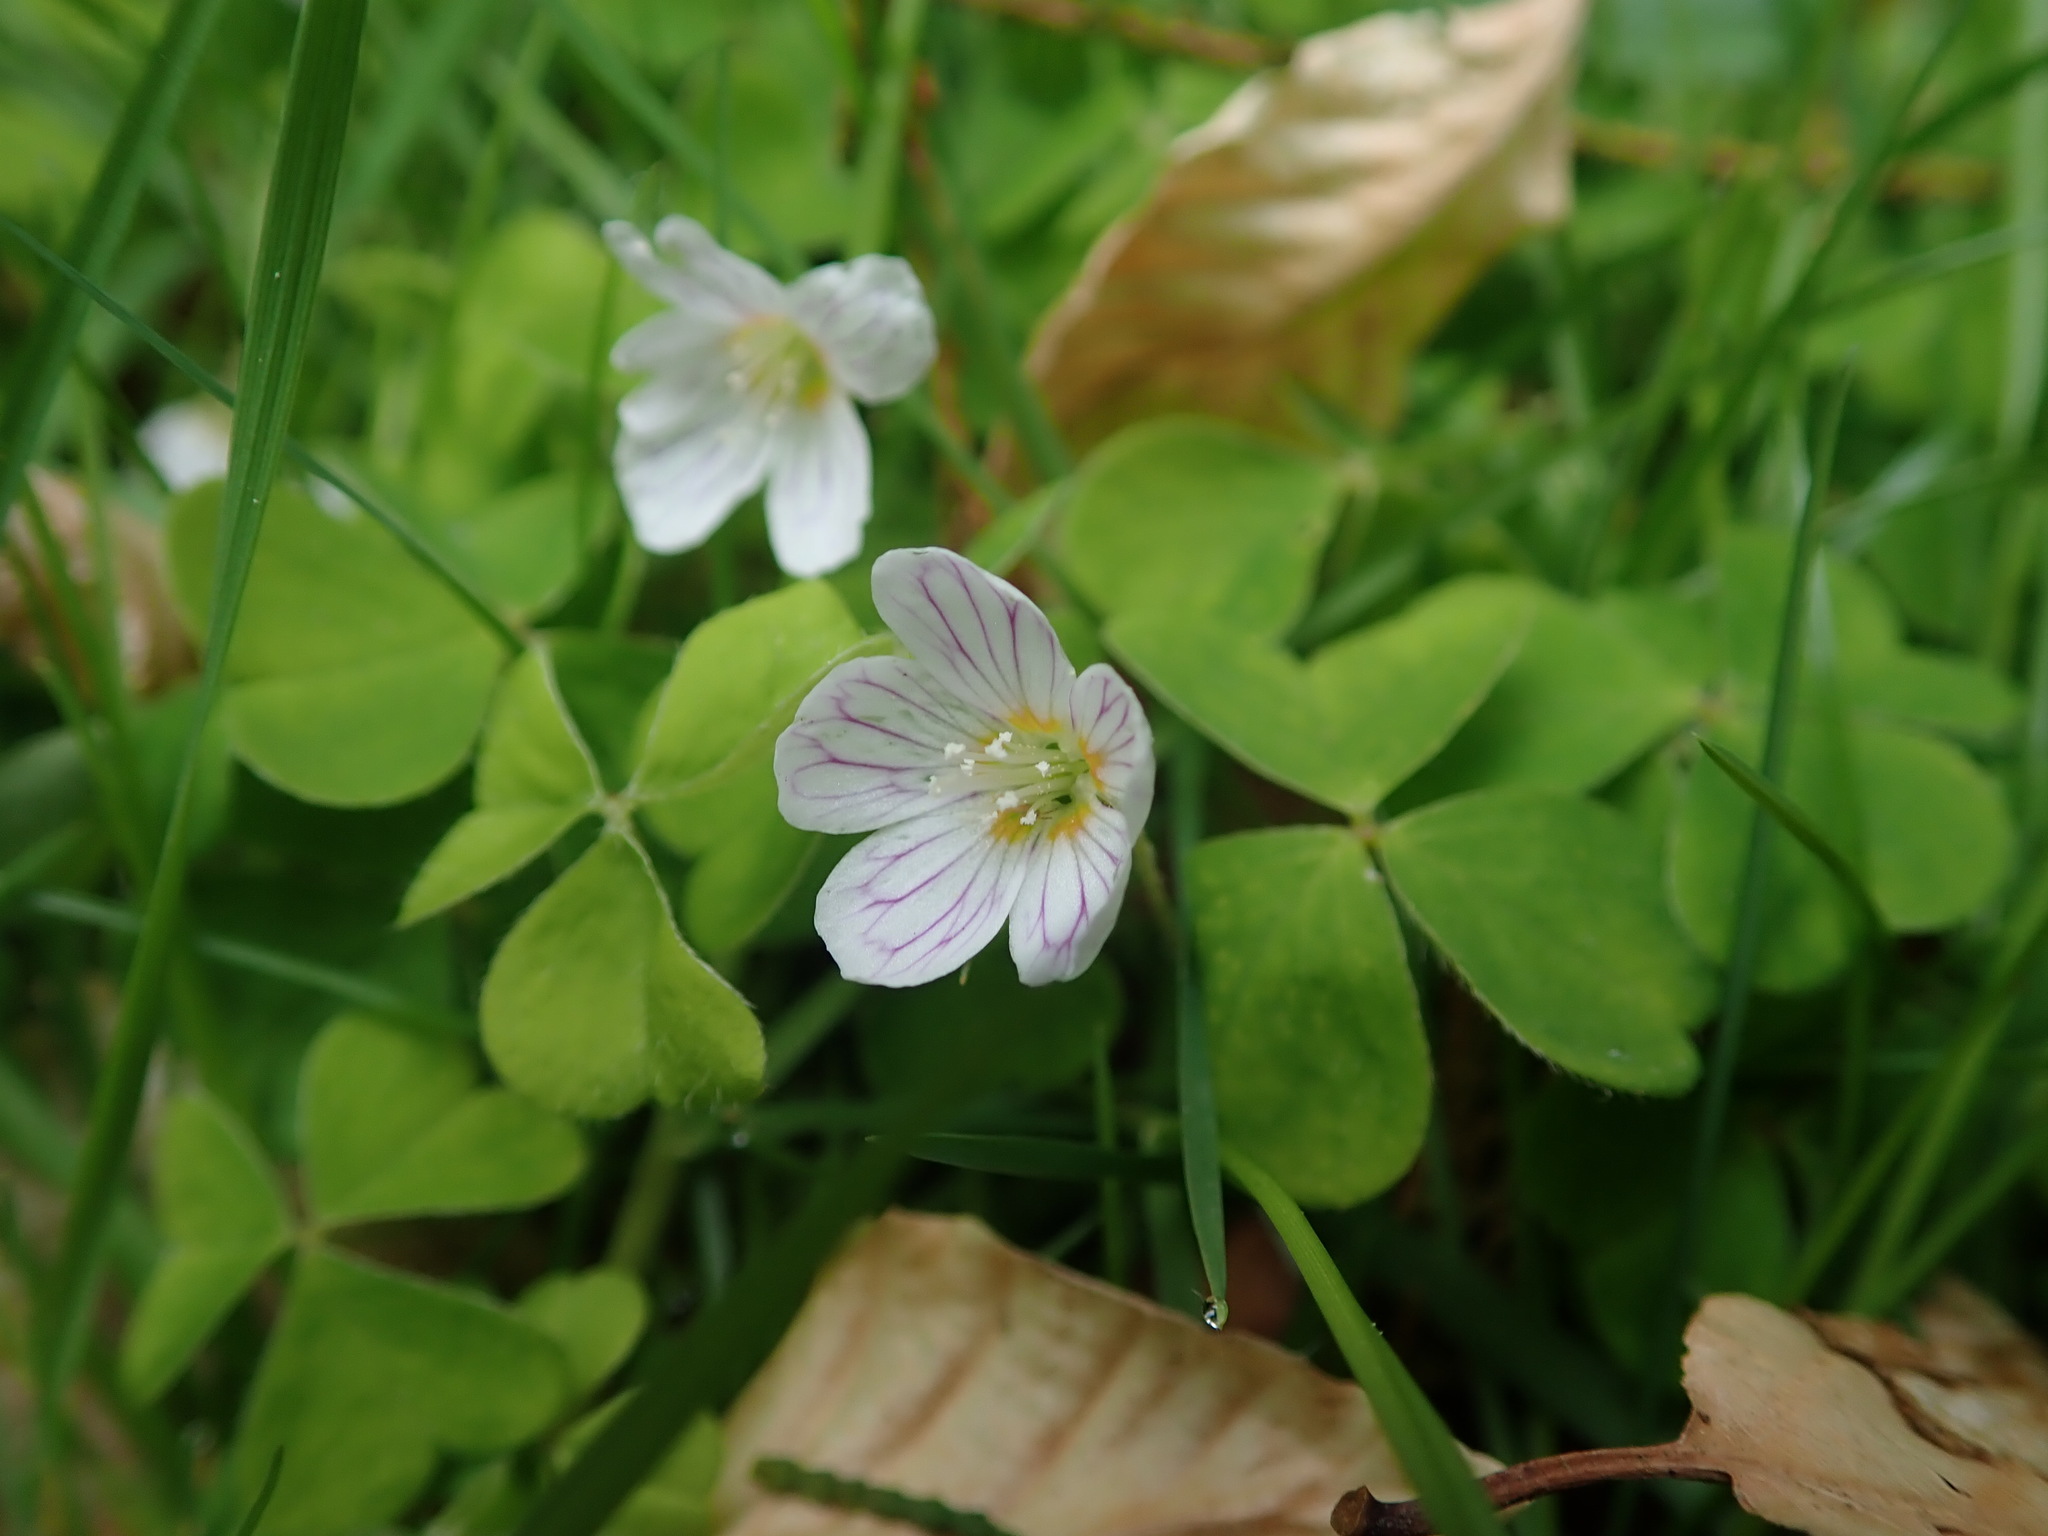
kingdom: Plantae
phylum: Tracheophyta
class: Magnoliopsida
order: Oxalidales
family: Oxalidaceae
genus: Oxalis
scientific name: Oxalis acetosella
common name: Wood-sorrel
